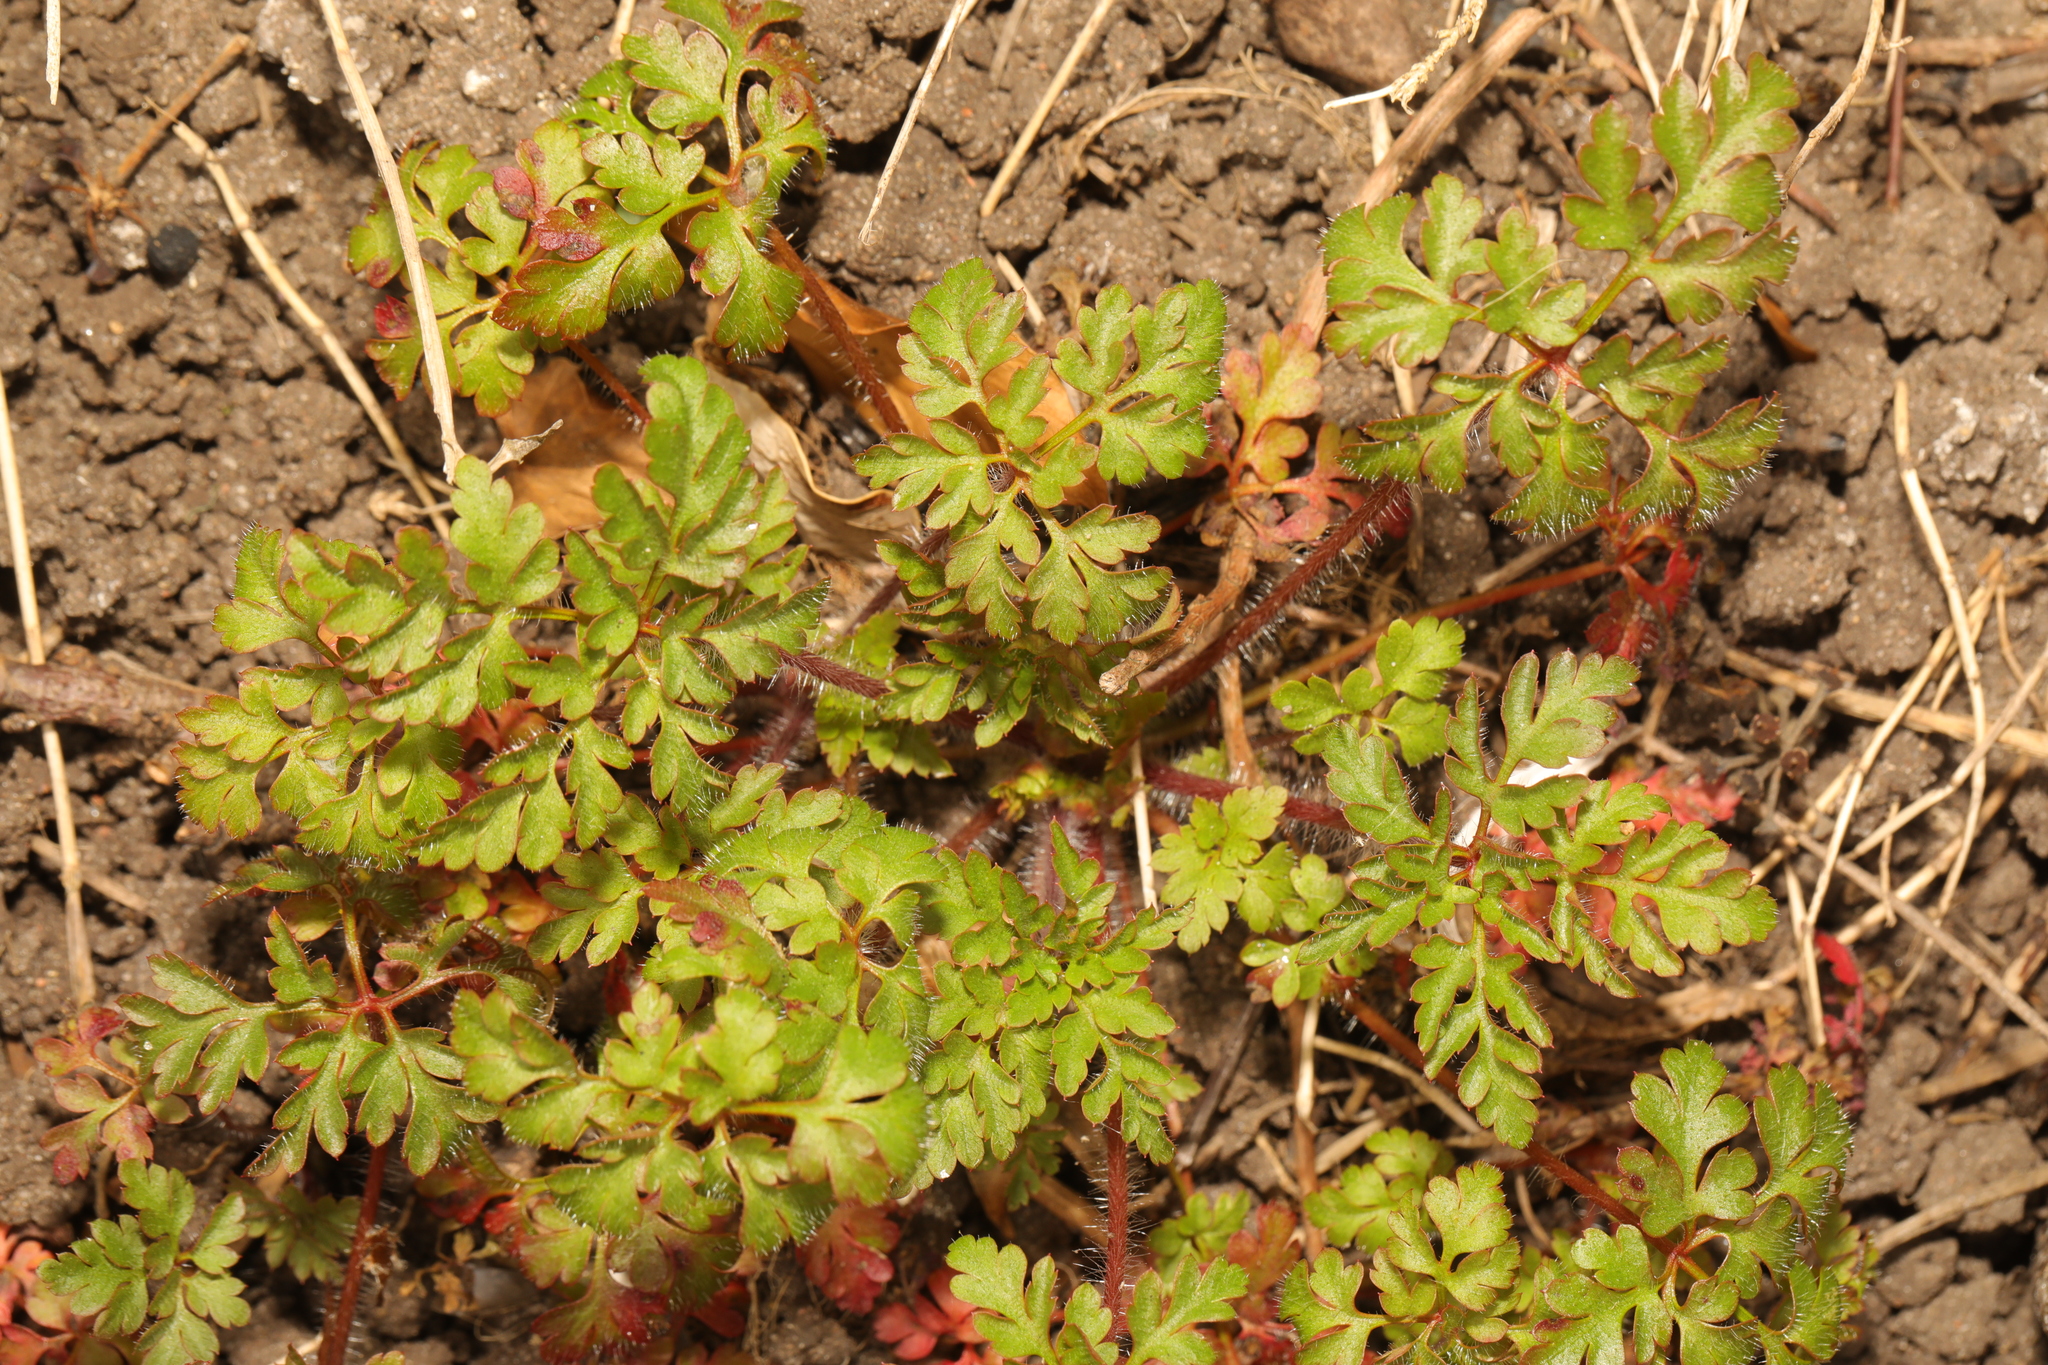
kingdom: Plantae
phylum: Tracheophyta
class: Magnoliopsida
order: Geraniales
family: Geraniaceae
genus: Geranium
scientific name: Geranium robertianum
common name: Herb-robert
